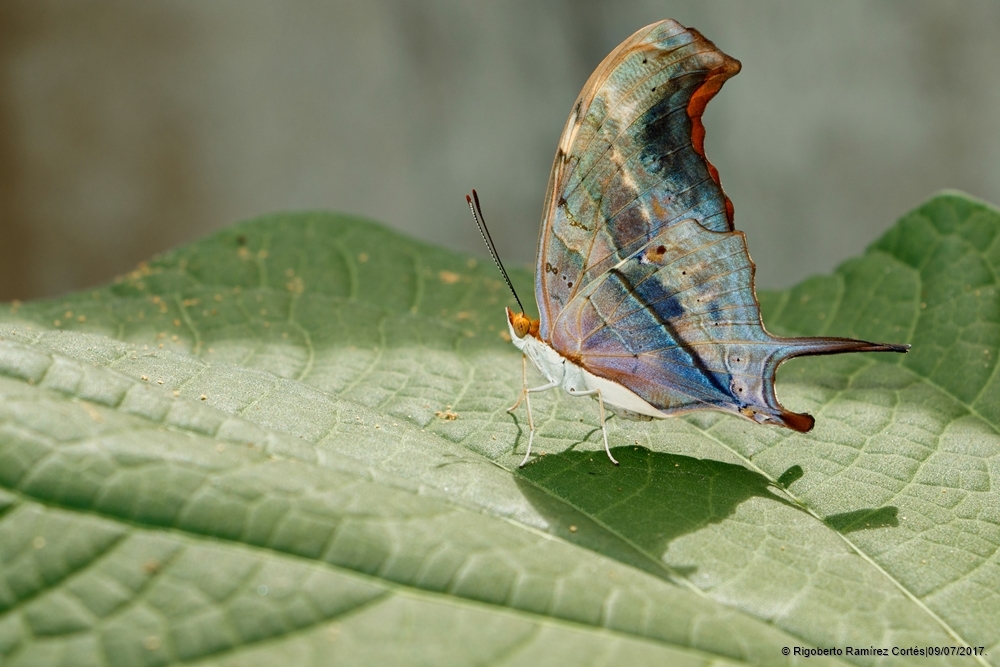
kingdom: Animalia
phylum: Arthropoda
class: Insecta
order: Lepidoptera
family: Nymphalidae
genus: Marpesia
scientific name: Marpesia petreus
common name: Red dagger wing
